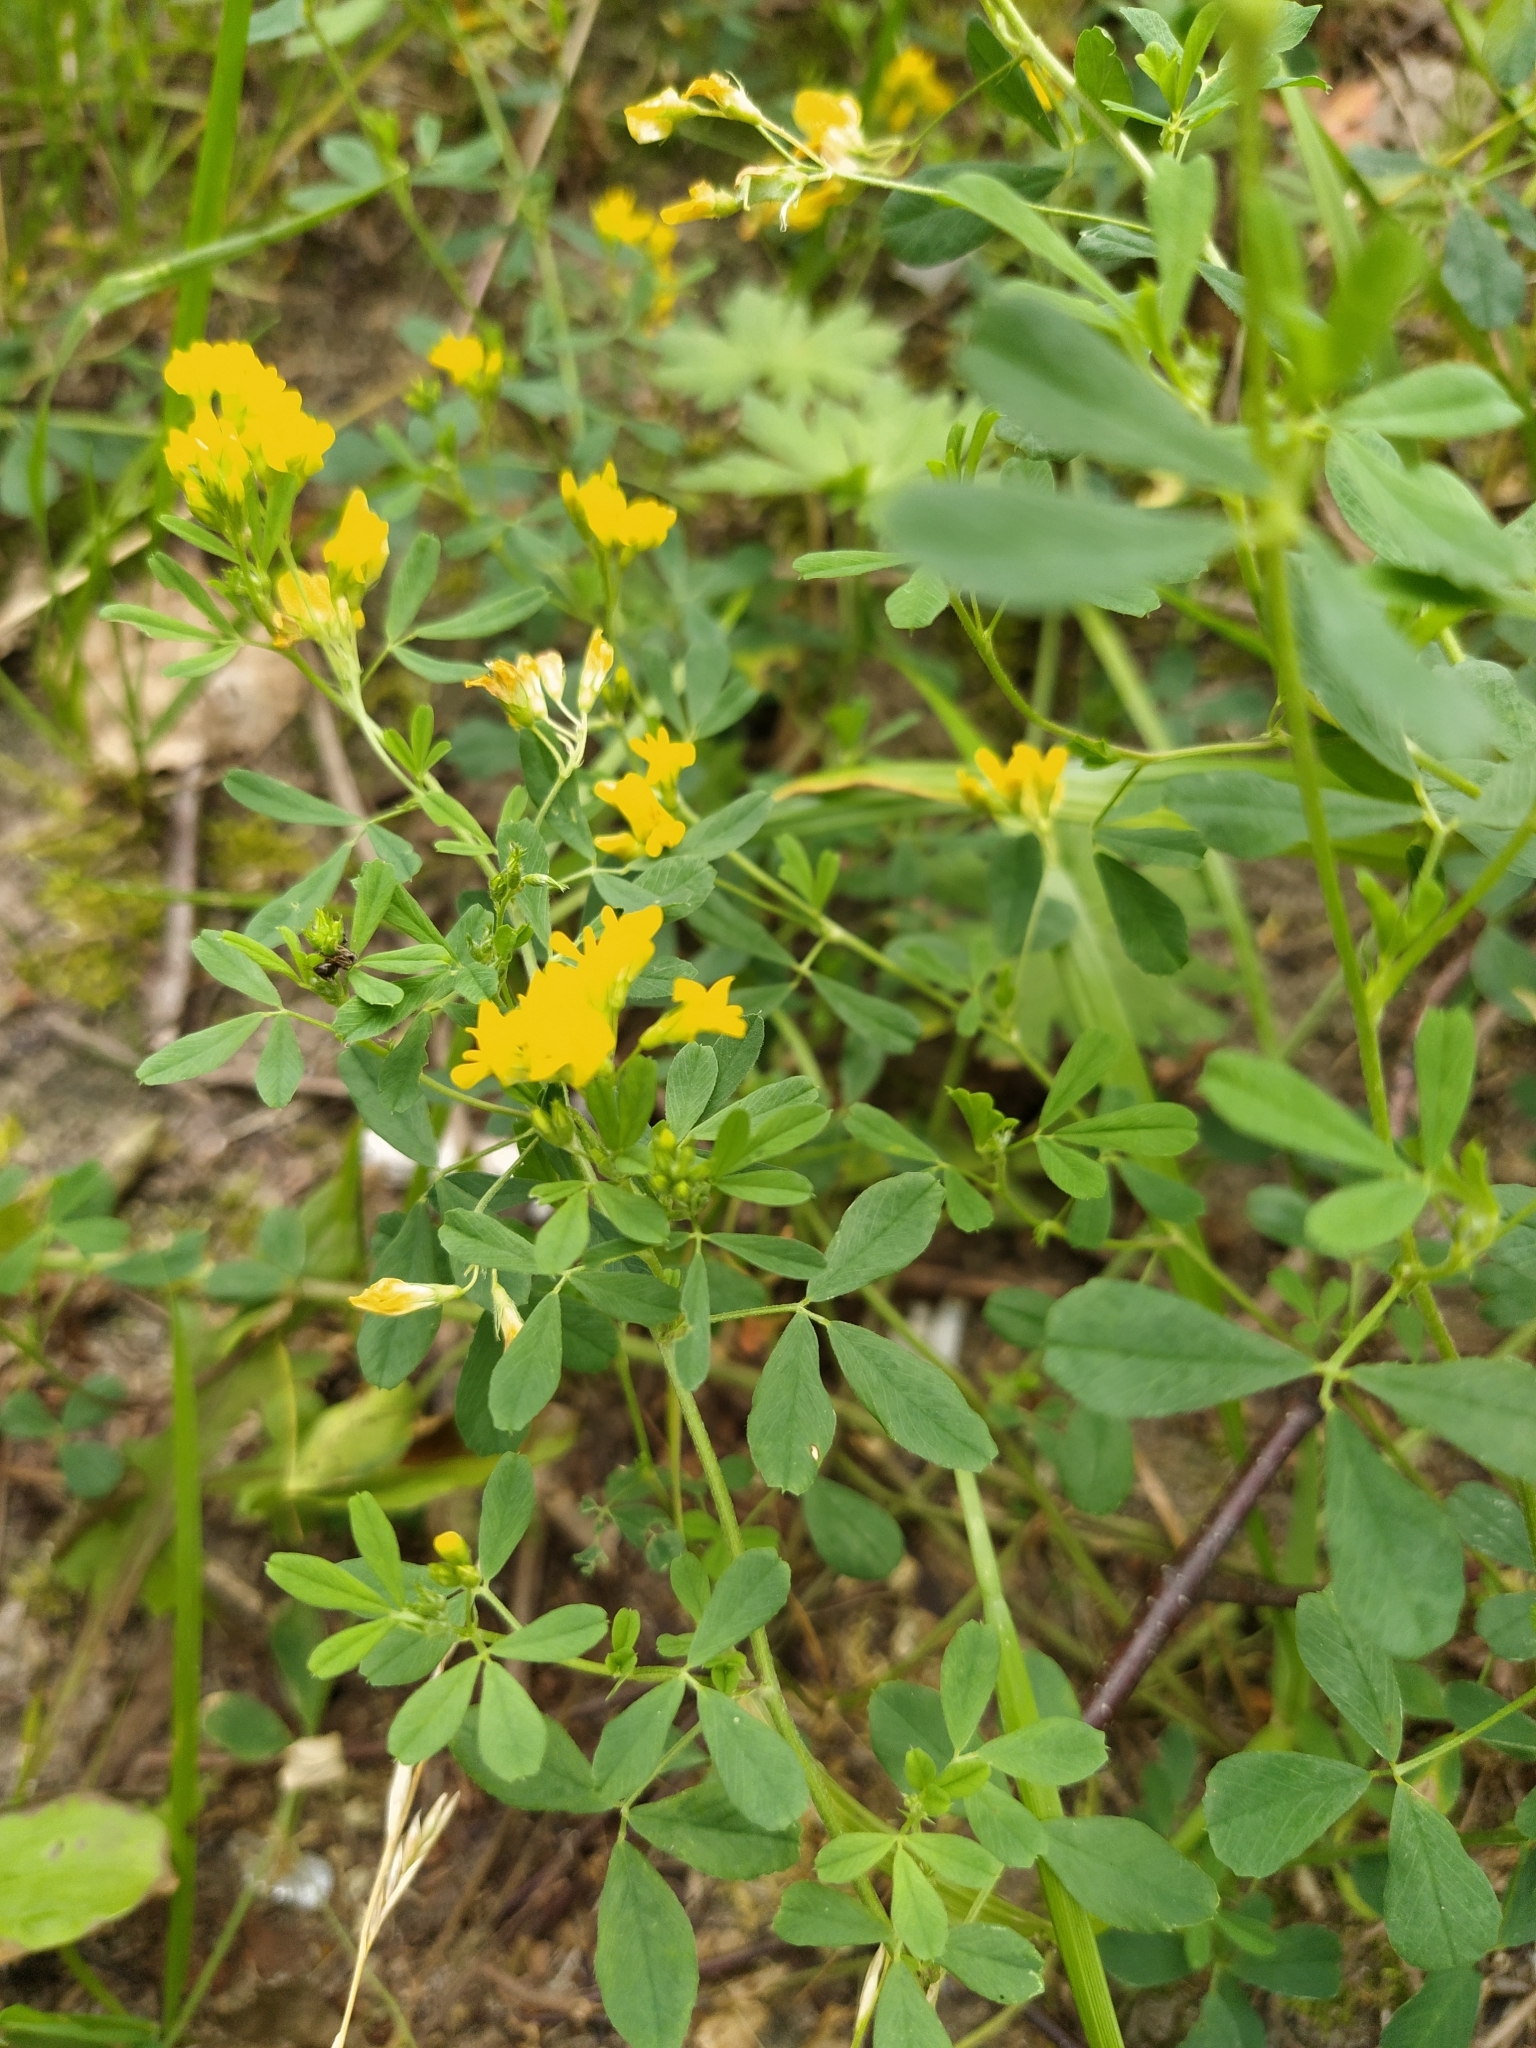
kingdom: Plantae
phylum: Tracheophyta
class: Magnoliopsida
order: Fabales
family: Fabaceae
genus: Medicago
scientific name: Medicago falcata
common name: Sickle medick
